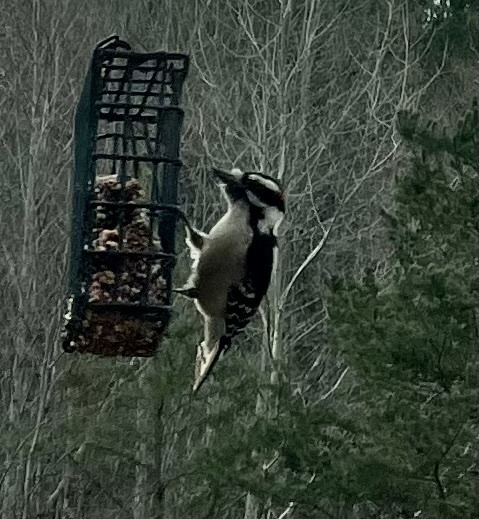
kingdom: Animalia
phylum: Chordata
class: Aves
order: Piciformes
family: Picidae
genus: Dryobates
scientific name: Dryobates pubescens
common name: Downy woodpecker
